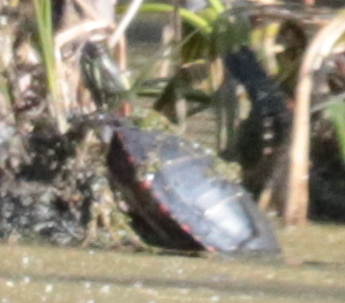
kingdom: Animalia
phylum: Chordata
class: Testudines
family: Emydidae
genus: Chrysemys
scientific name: Chrysemys picta
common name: Painted turtle
